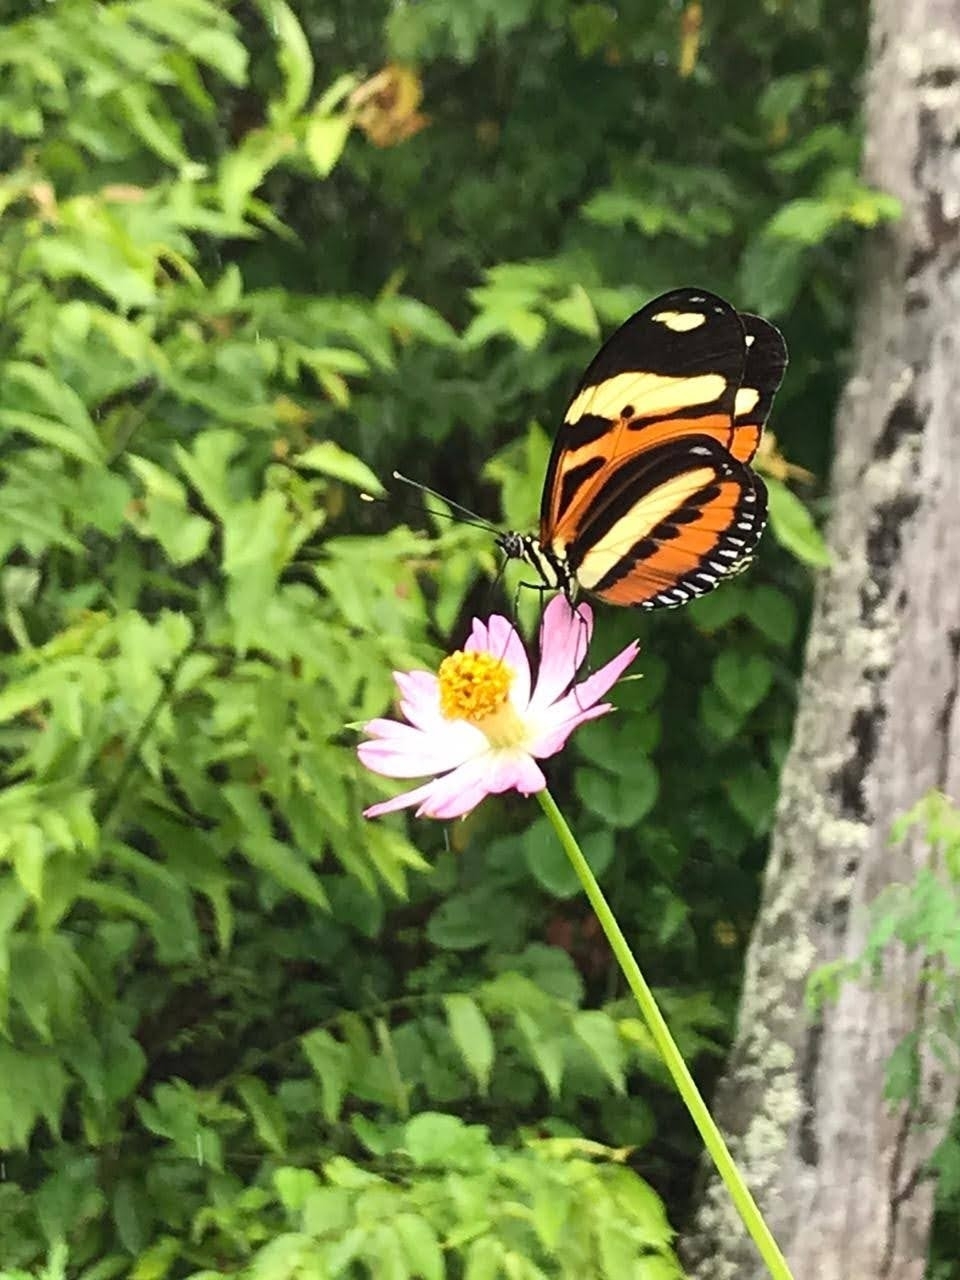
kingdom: Animalia
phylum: Arthropoda
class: Insecta
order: Lepidoptera
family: Nymphalidae
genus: Heliconius
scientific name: Heliconius ethilla
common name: Ethilia longwing
